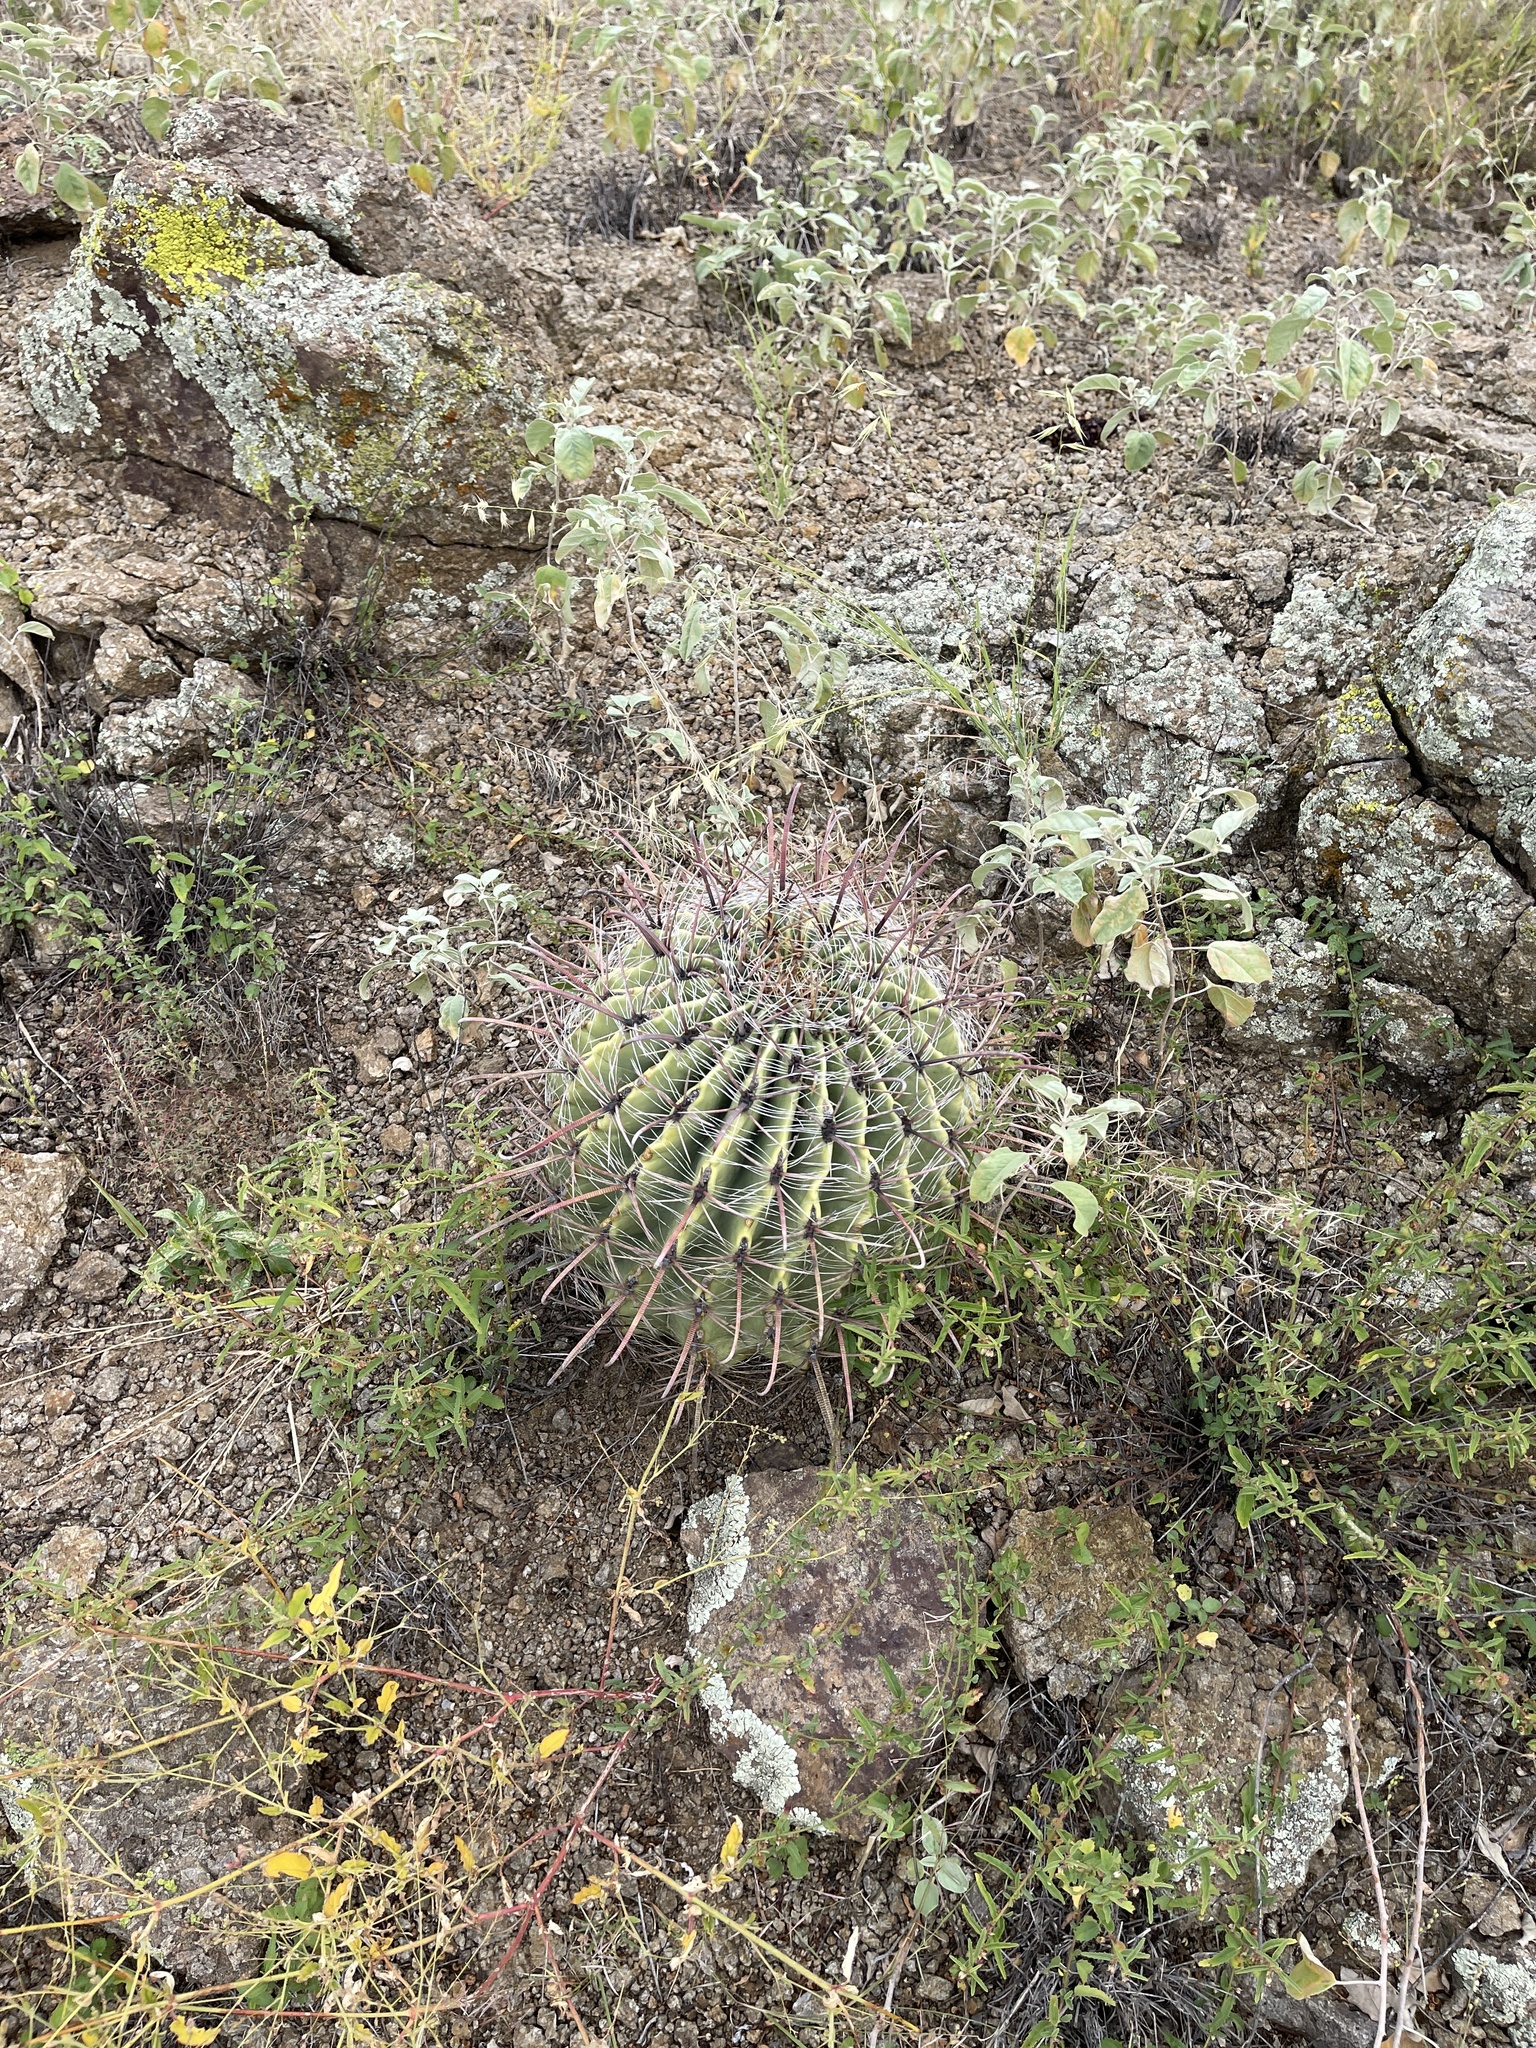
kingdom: Plantae
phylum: Tracheophyta
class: Magnoliopsida
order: Caryophyllales
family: Cactaceae
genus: Ferocactus
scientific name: Ferocactus wislizeni
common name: Candy barrel cactus
